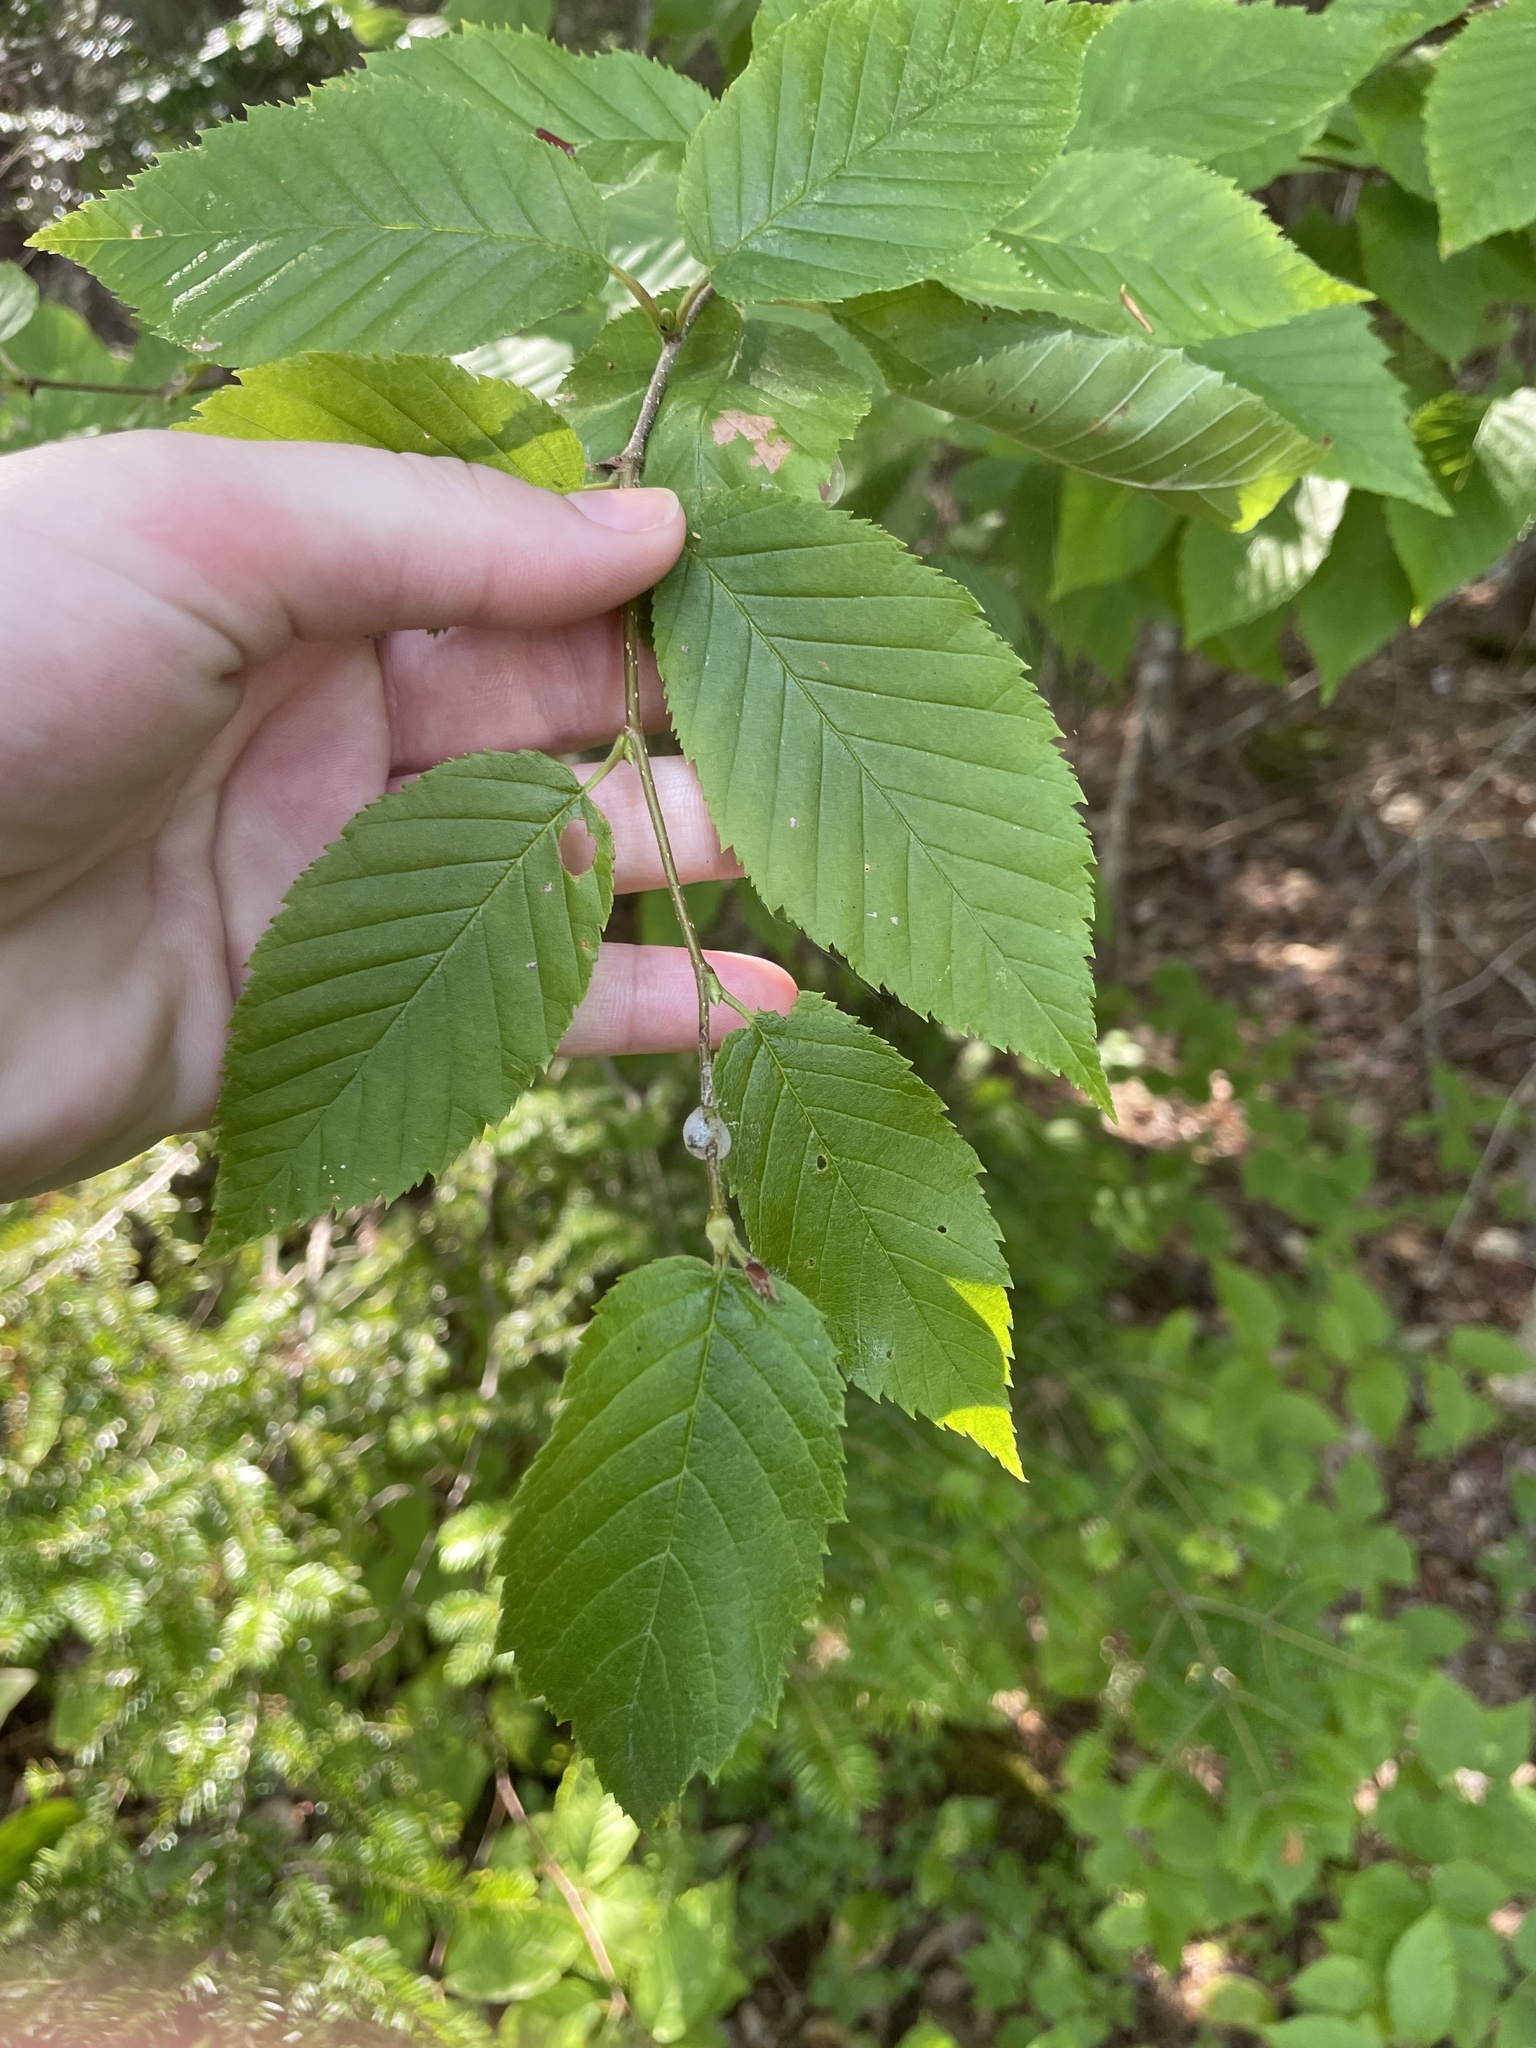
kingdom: Plantae
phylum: Tracheophyta
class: Magnoliopsida
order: Fagales
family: Betulaceae
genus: Betula
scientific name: Betula alleghaniensis
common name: Yellow birch
